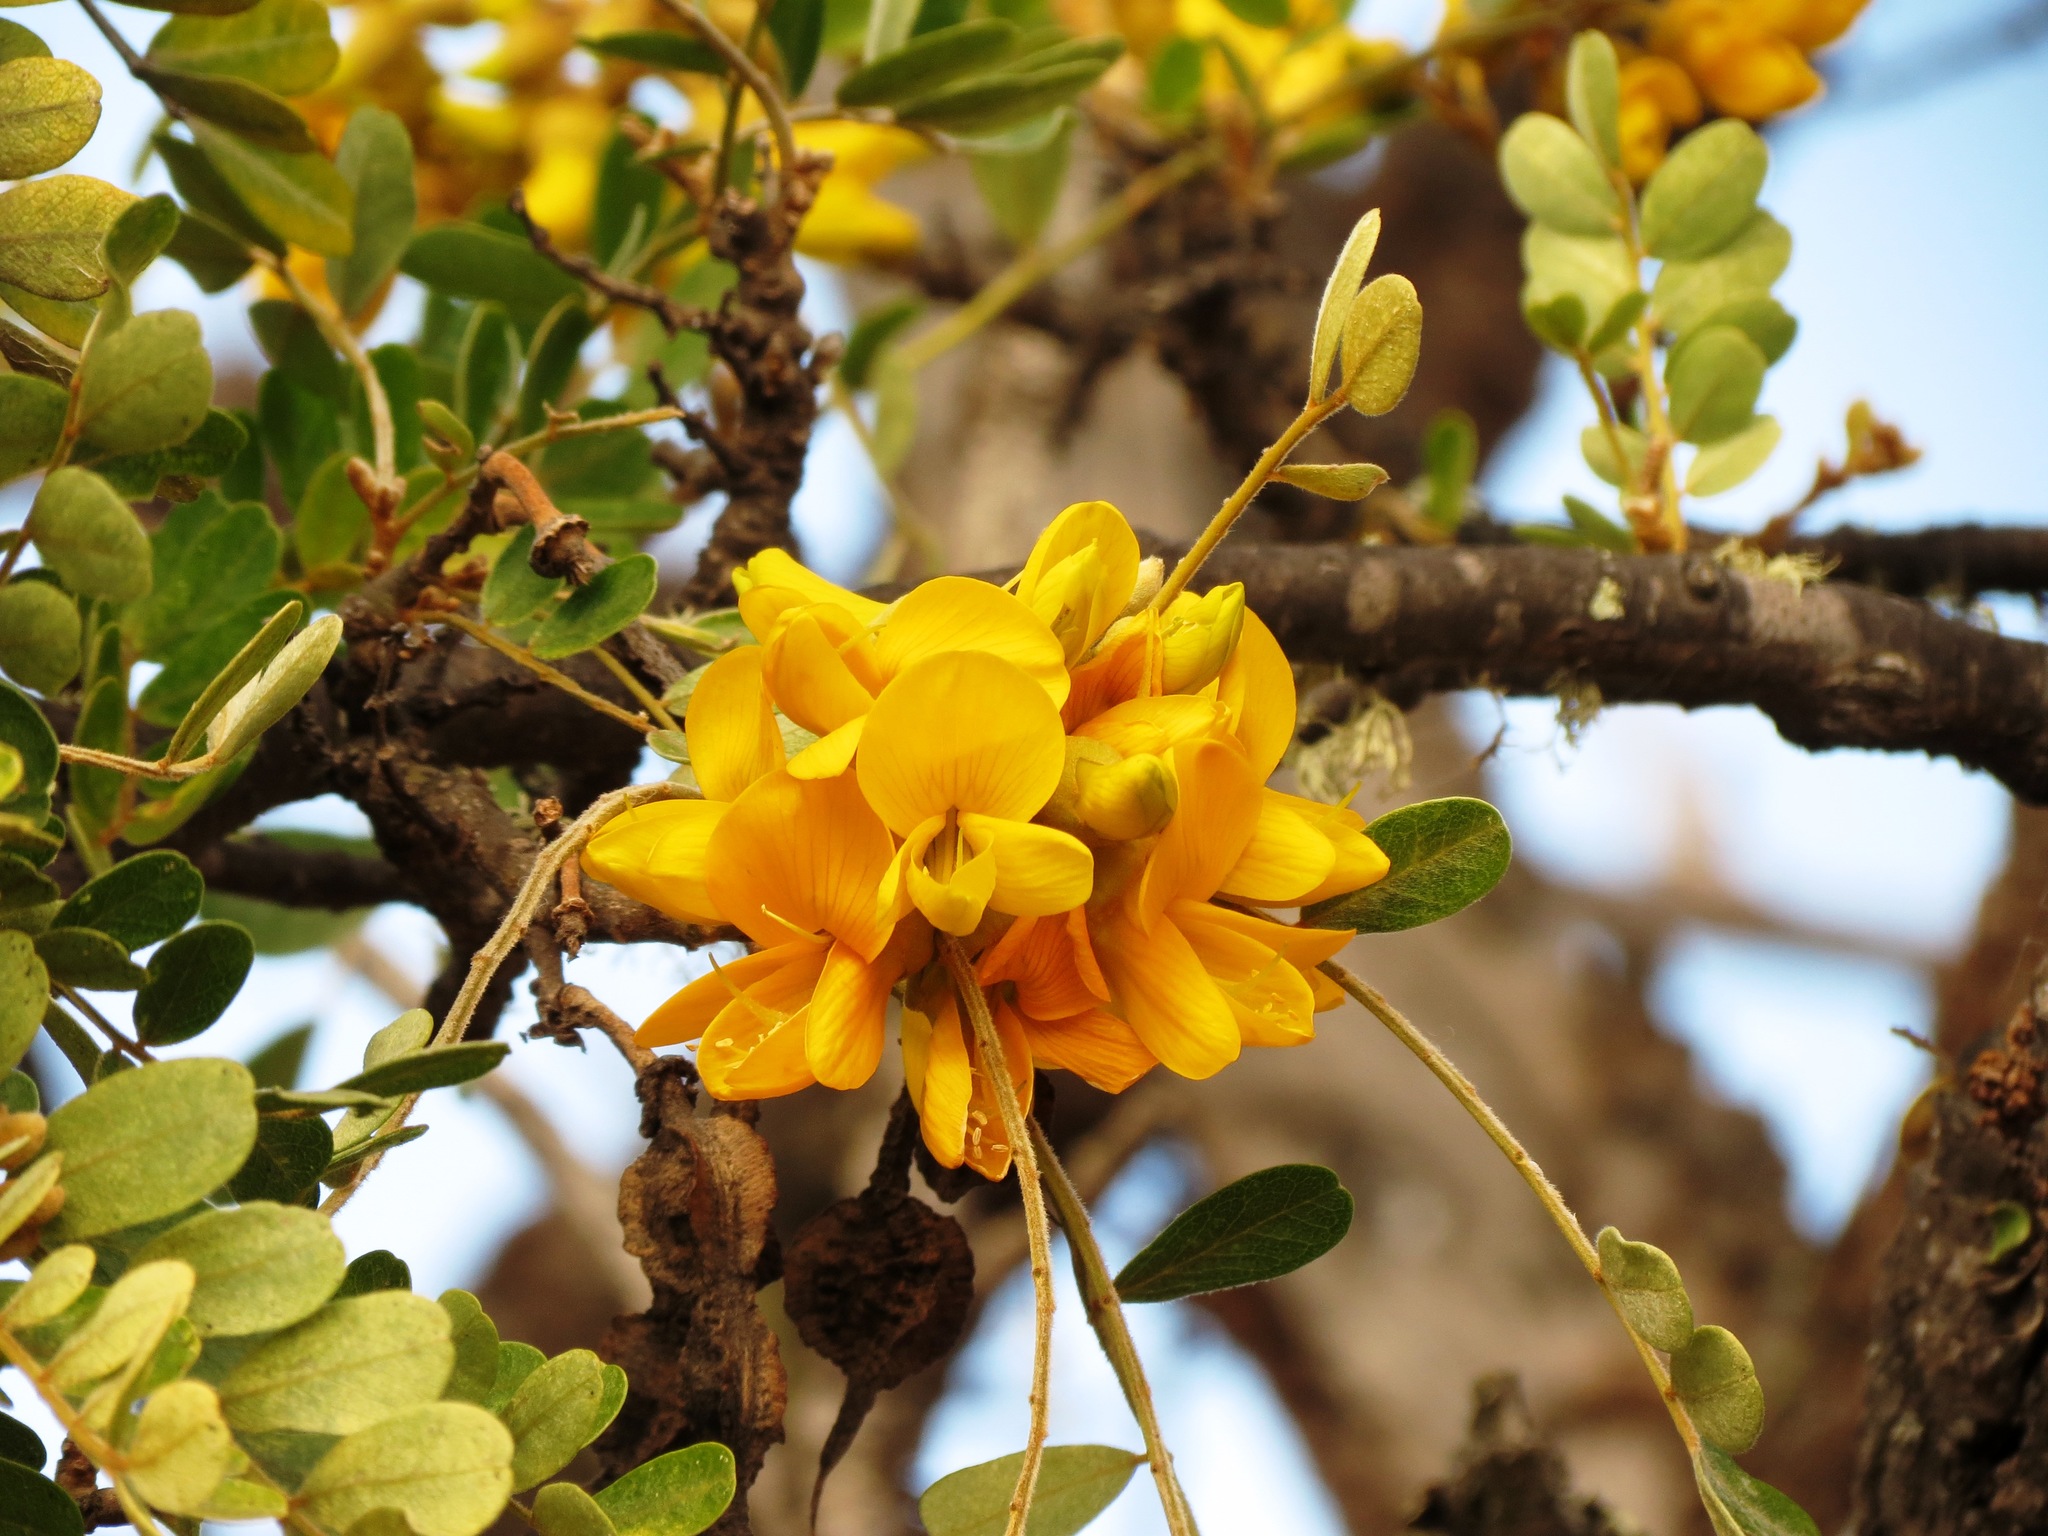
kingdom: Plantae
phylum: Tracheophyta
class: Magnoliopsida
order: Fabales
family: Fabaceae
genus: Sophora
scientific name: Sophora chrysophylla
